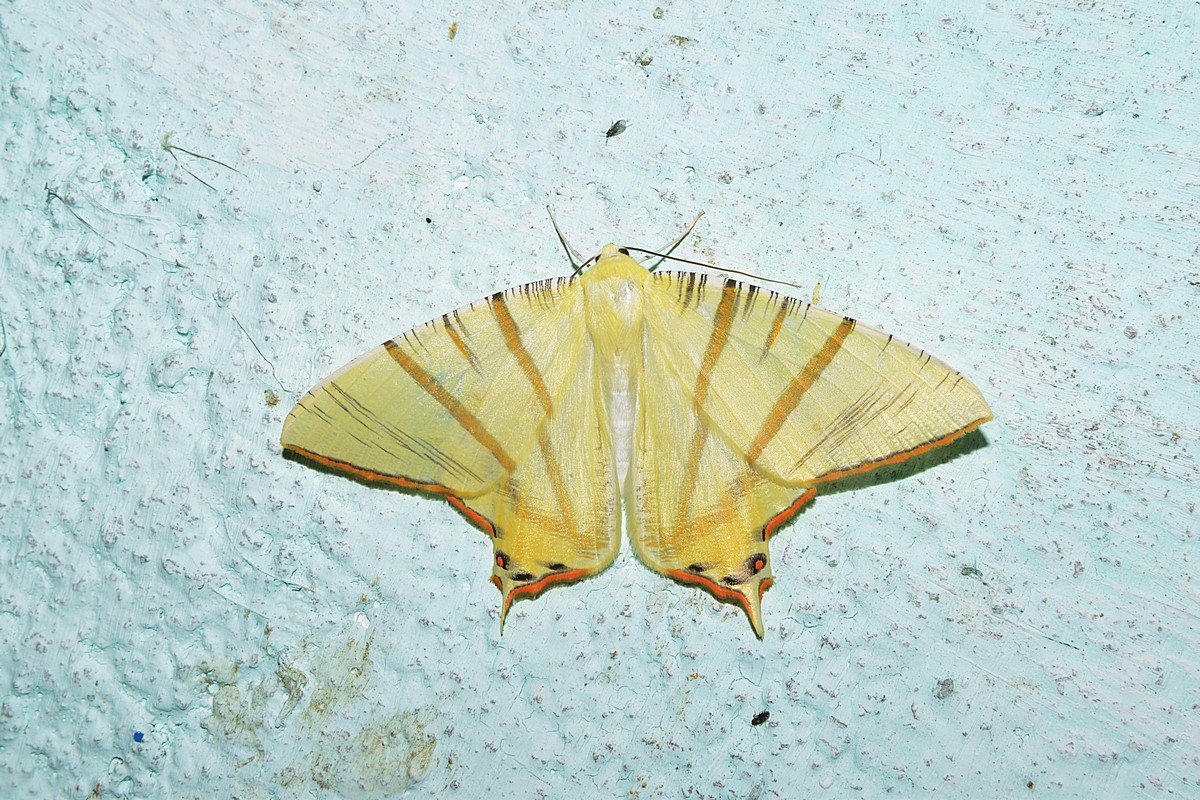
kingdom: Animalia
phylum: Arthropoda
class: Insecta
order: Lepidoptera
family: Geometridae
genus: Ourapteryx
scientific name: Ourapteryx primularis
